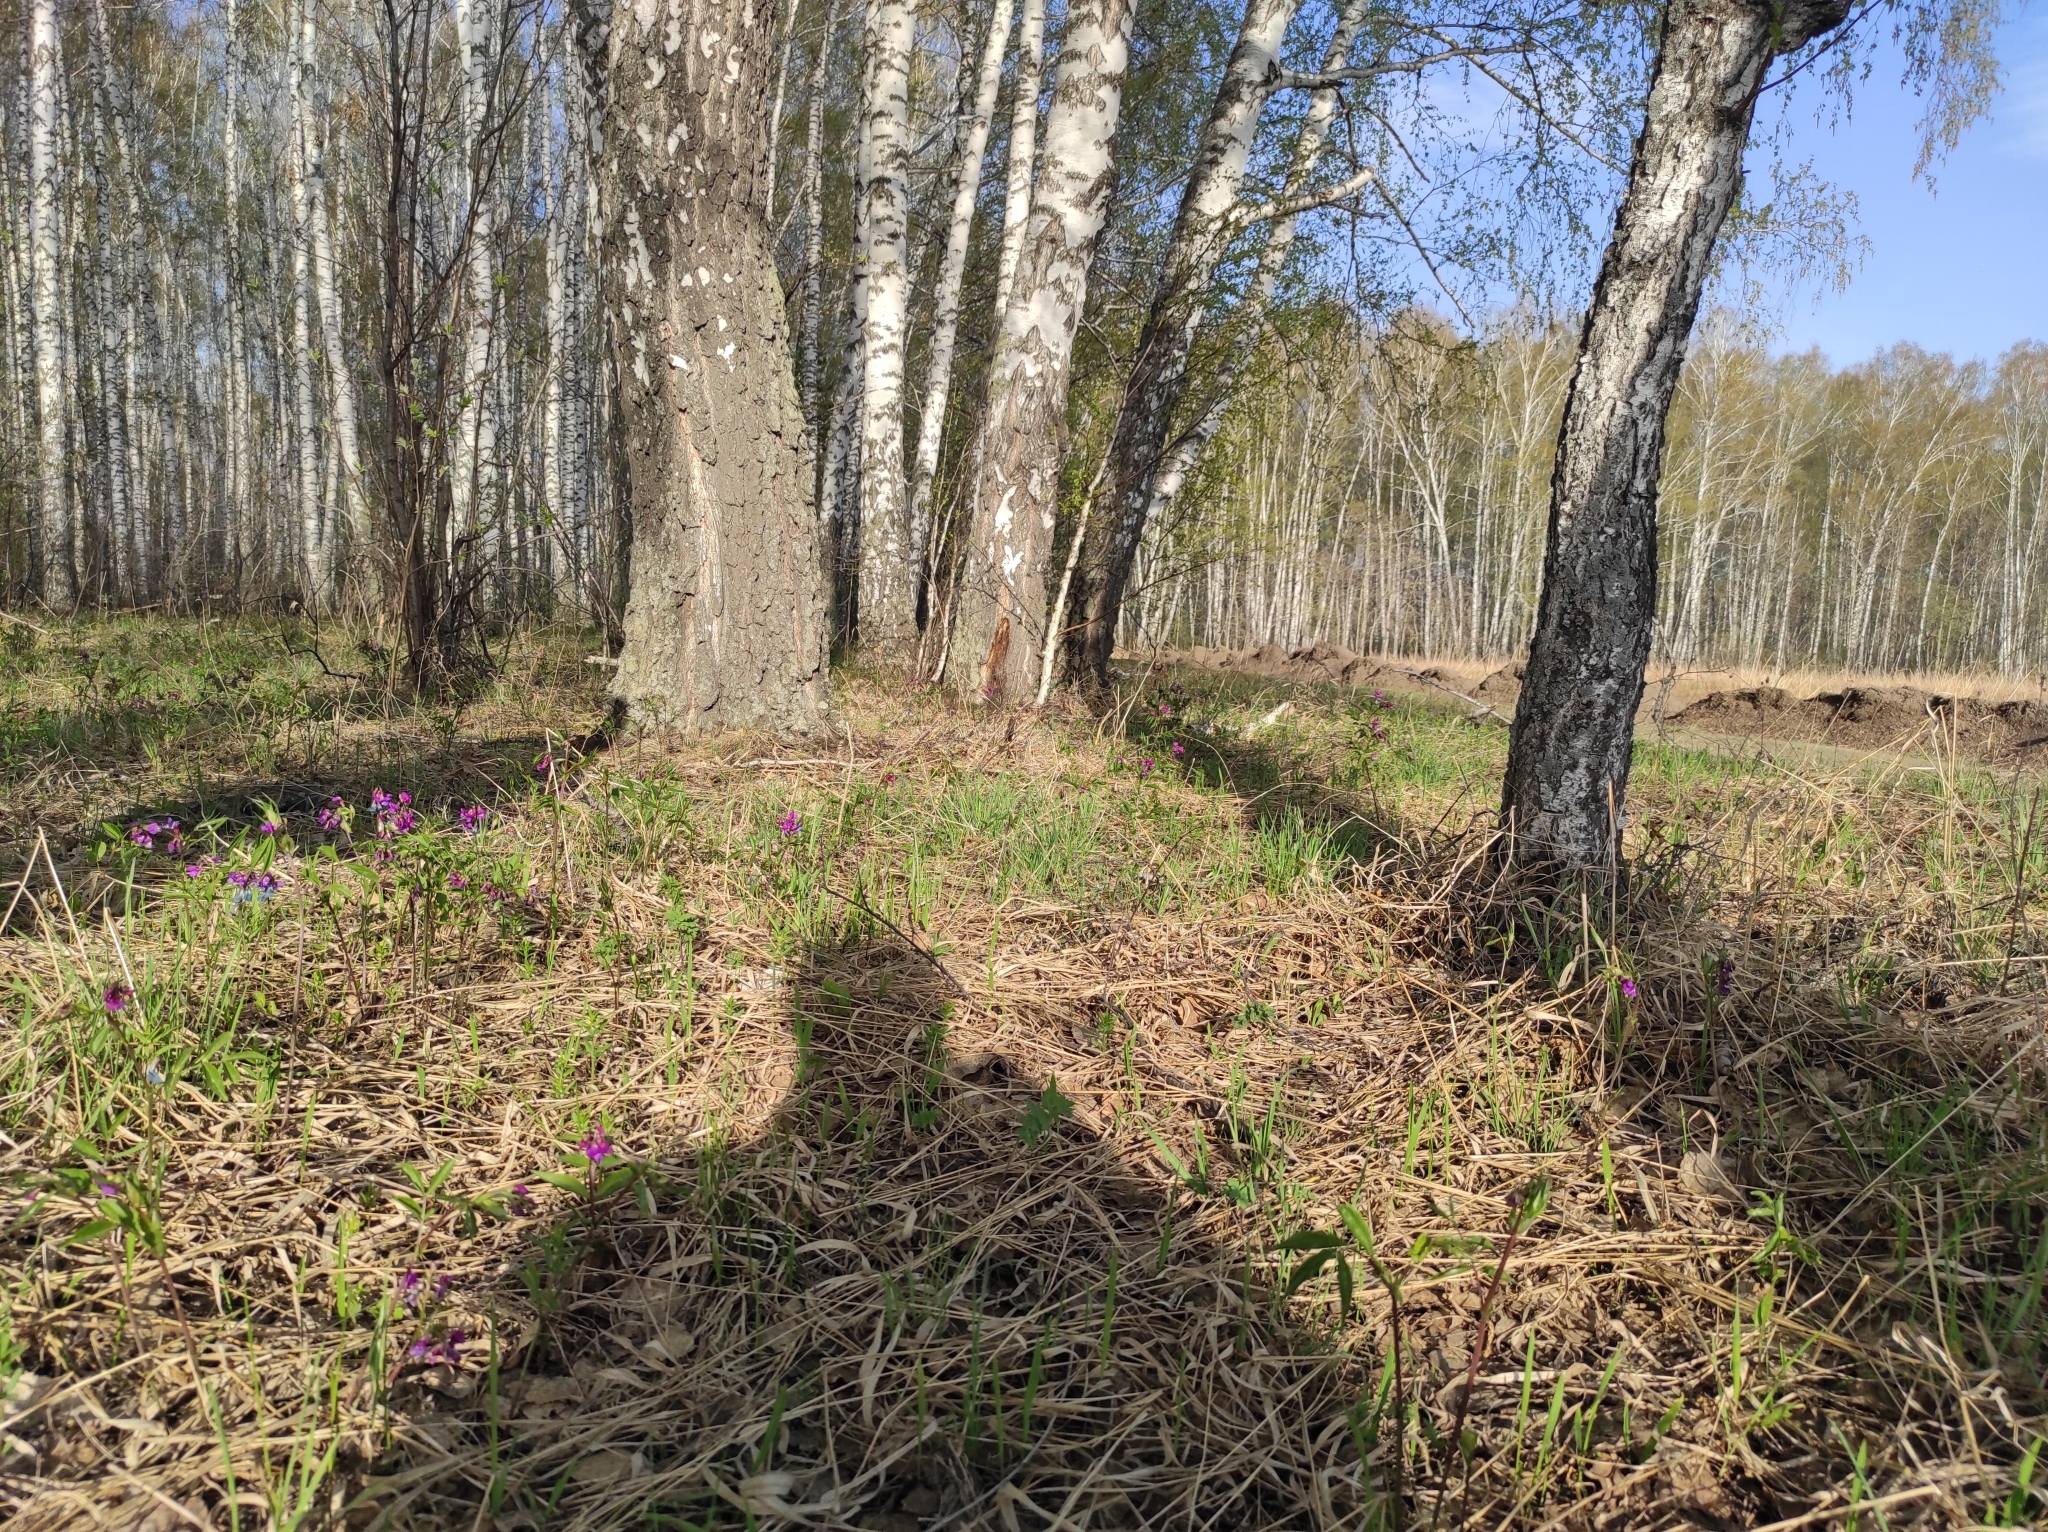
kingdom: Plantae
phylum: Tracheophyta
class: Magnoliopsida
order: Fabales
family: Fabaceae
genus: Lathyrus
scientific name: Lathyrus vernus
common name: Spring pea
